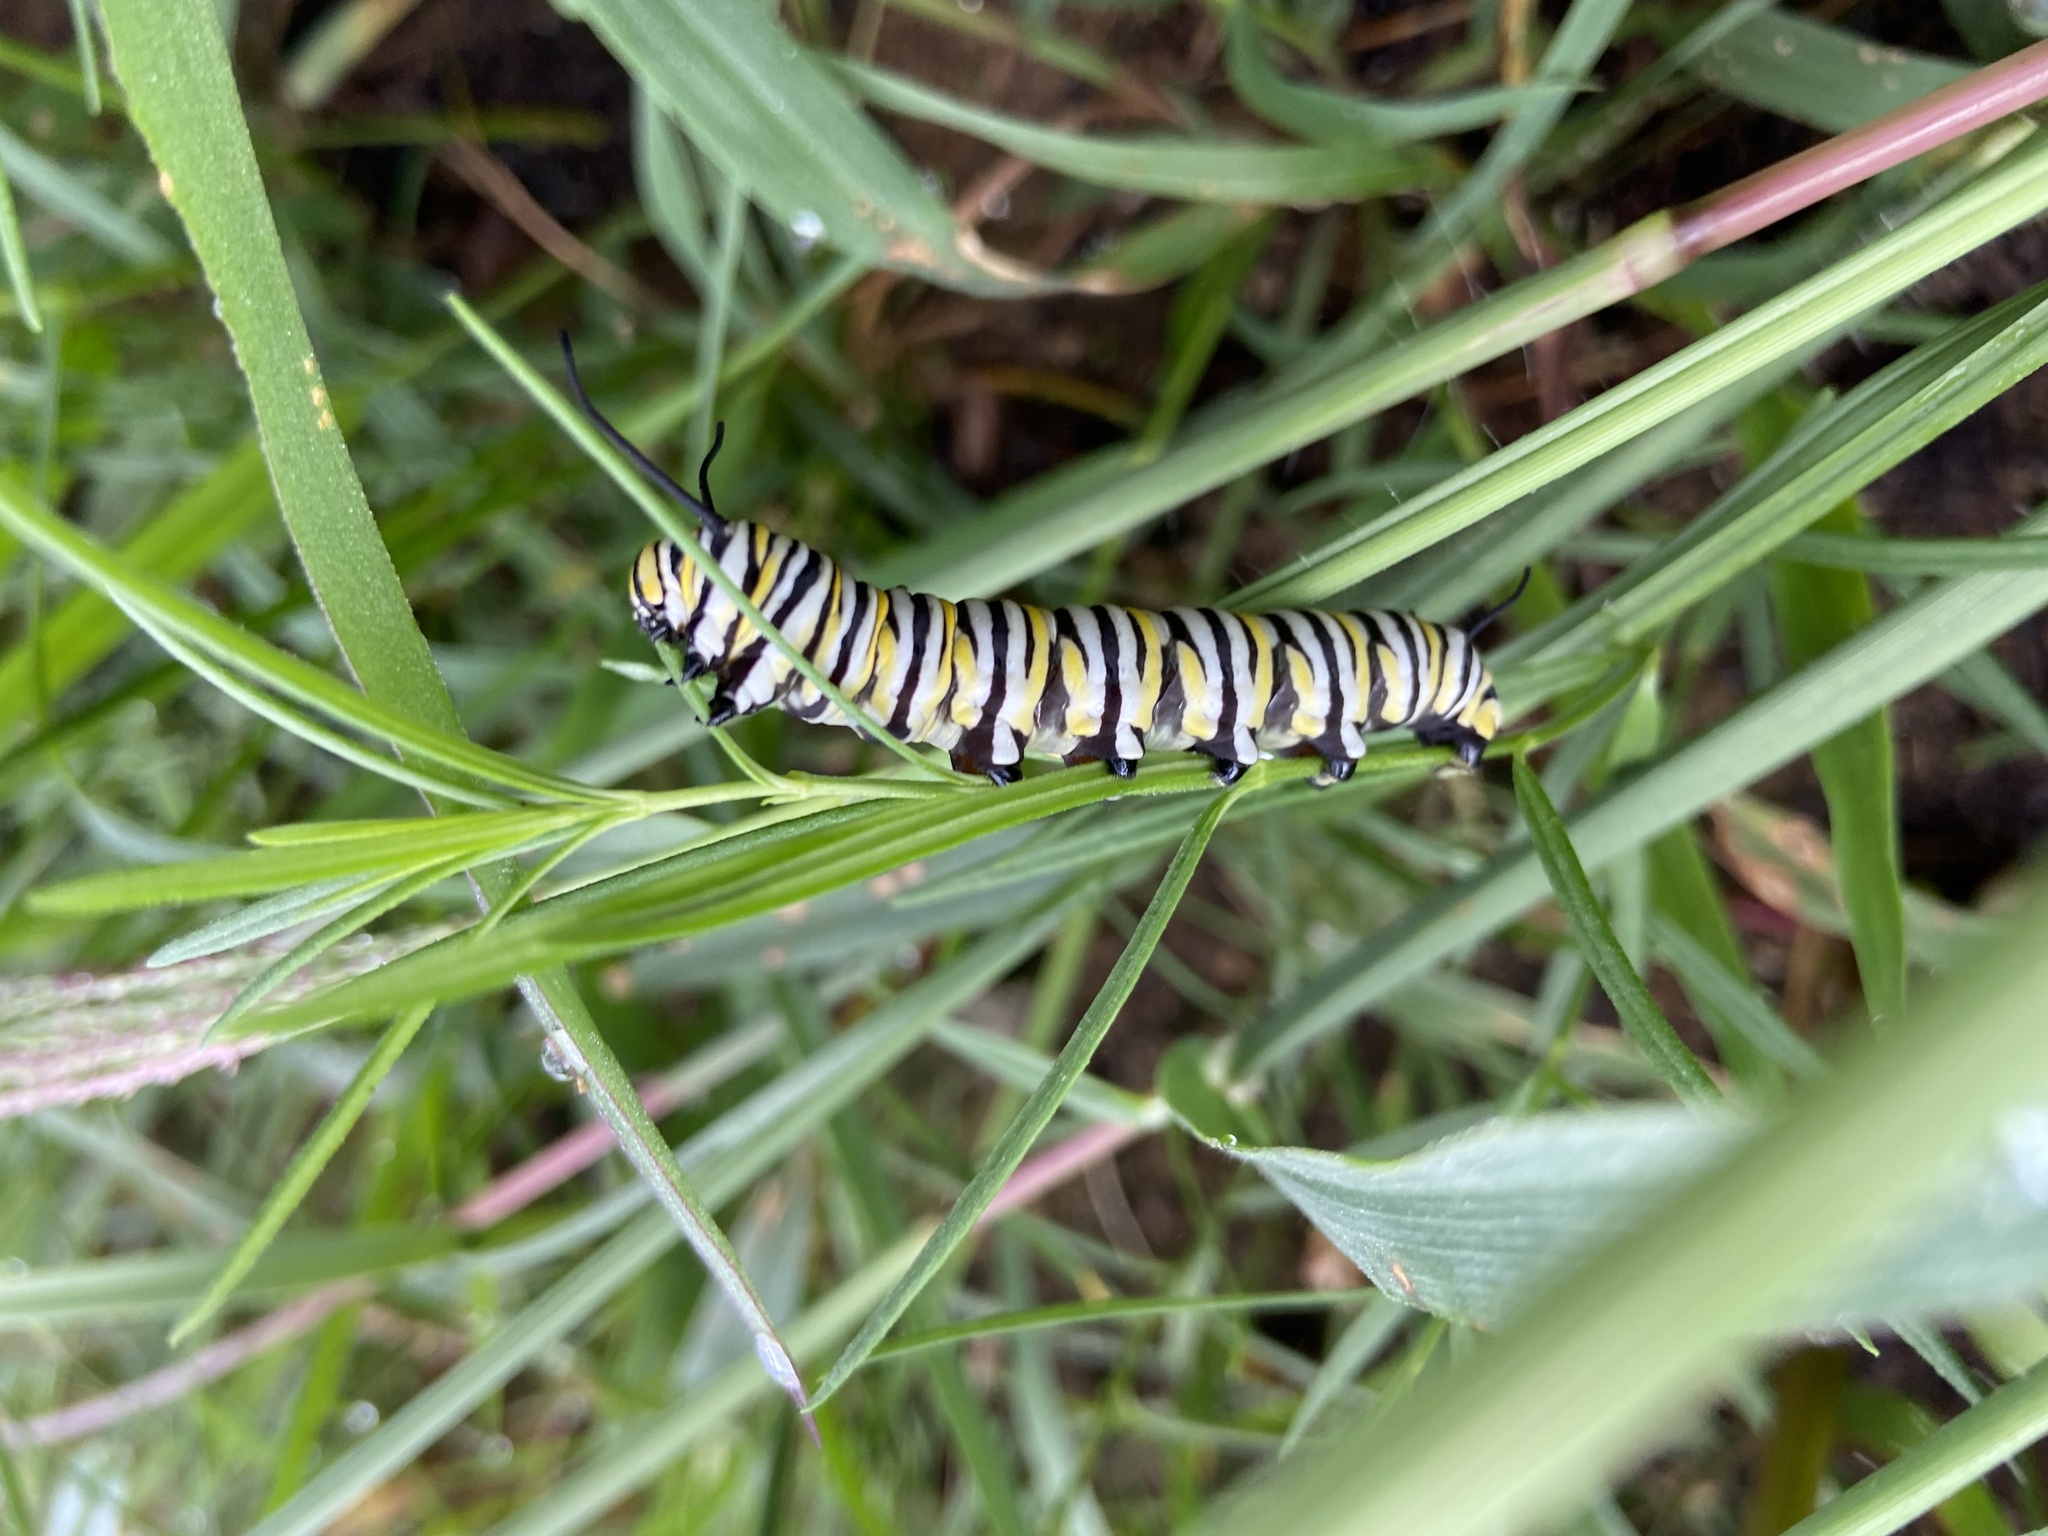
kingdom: Animalia
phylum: Arthropoda
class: Insecta
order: Lepidoptera
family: Nymphalidae
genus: Danaus
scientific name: Danaus plexippus
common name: Monarch
